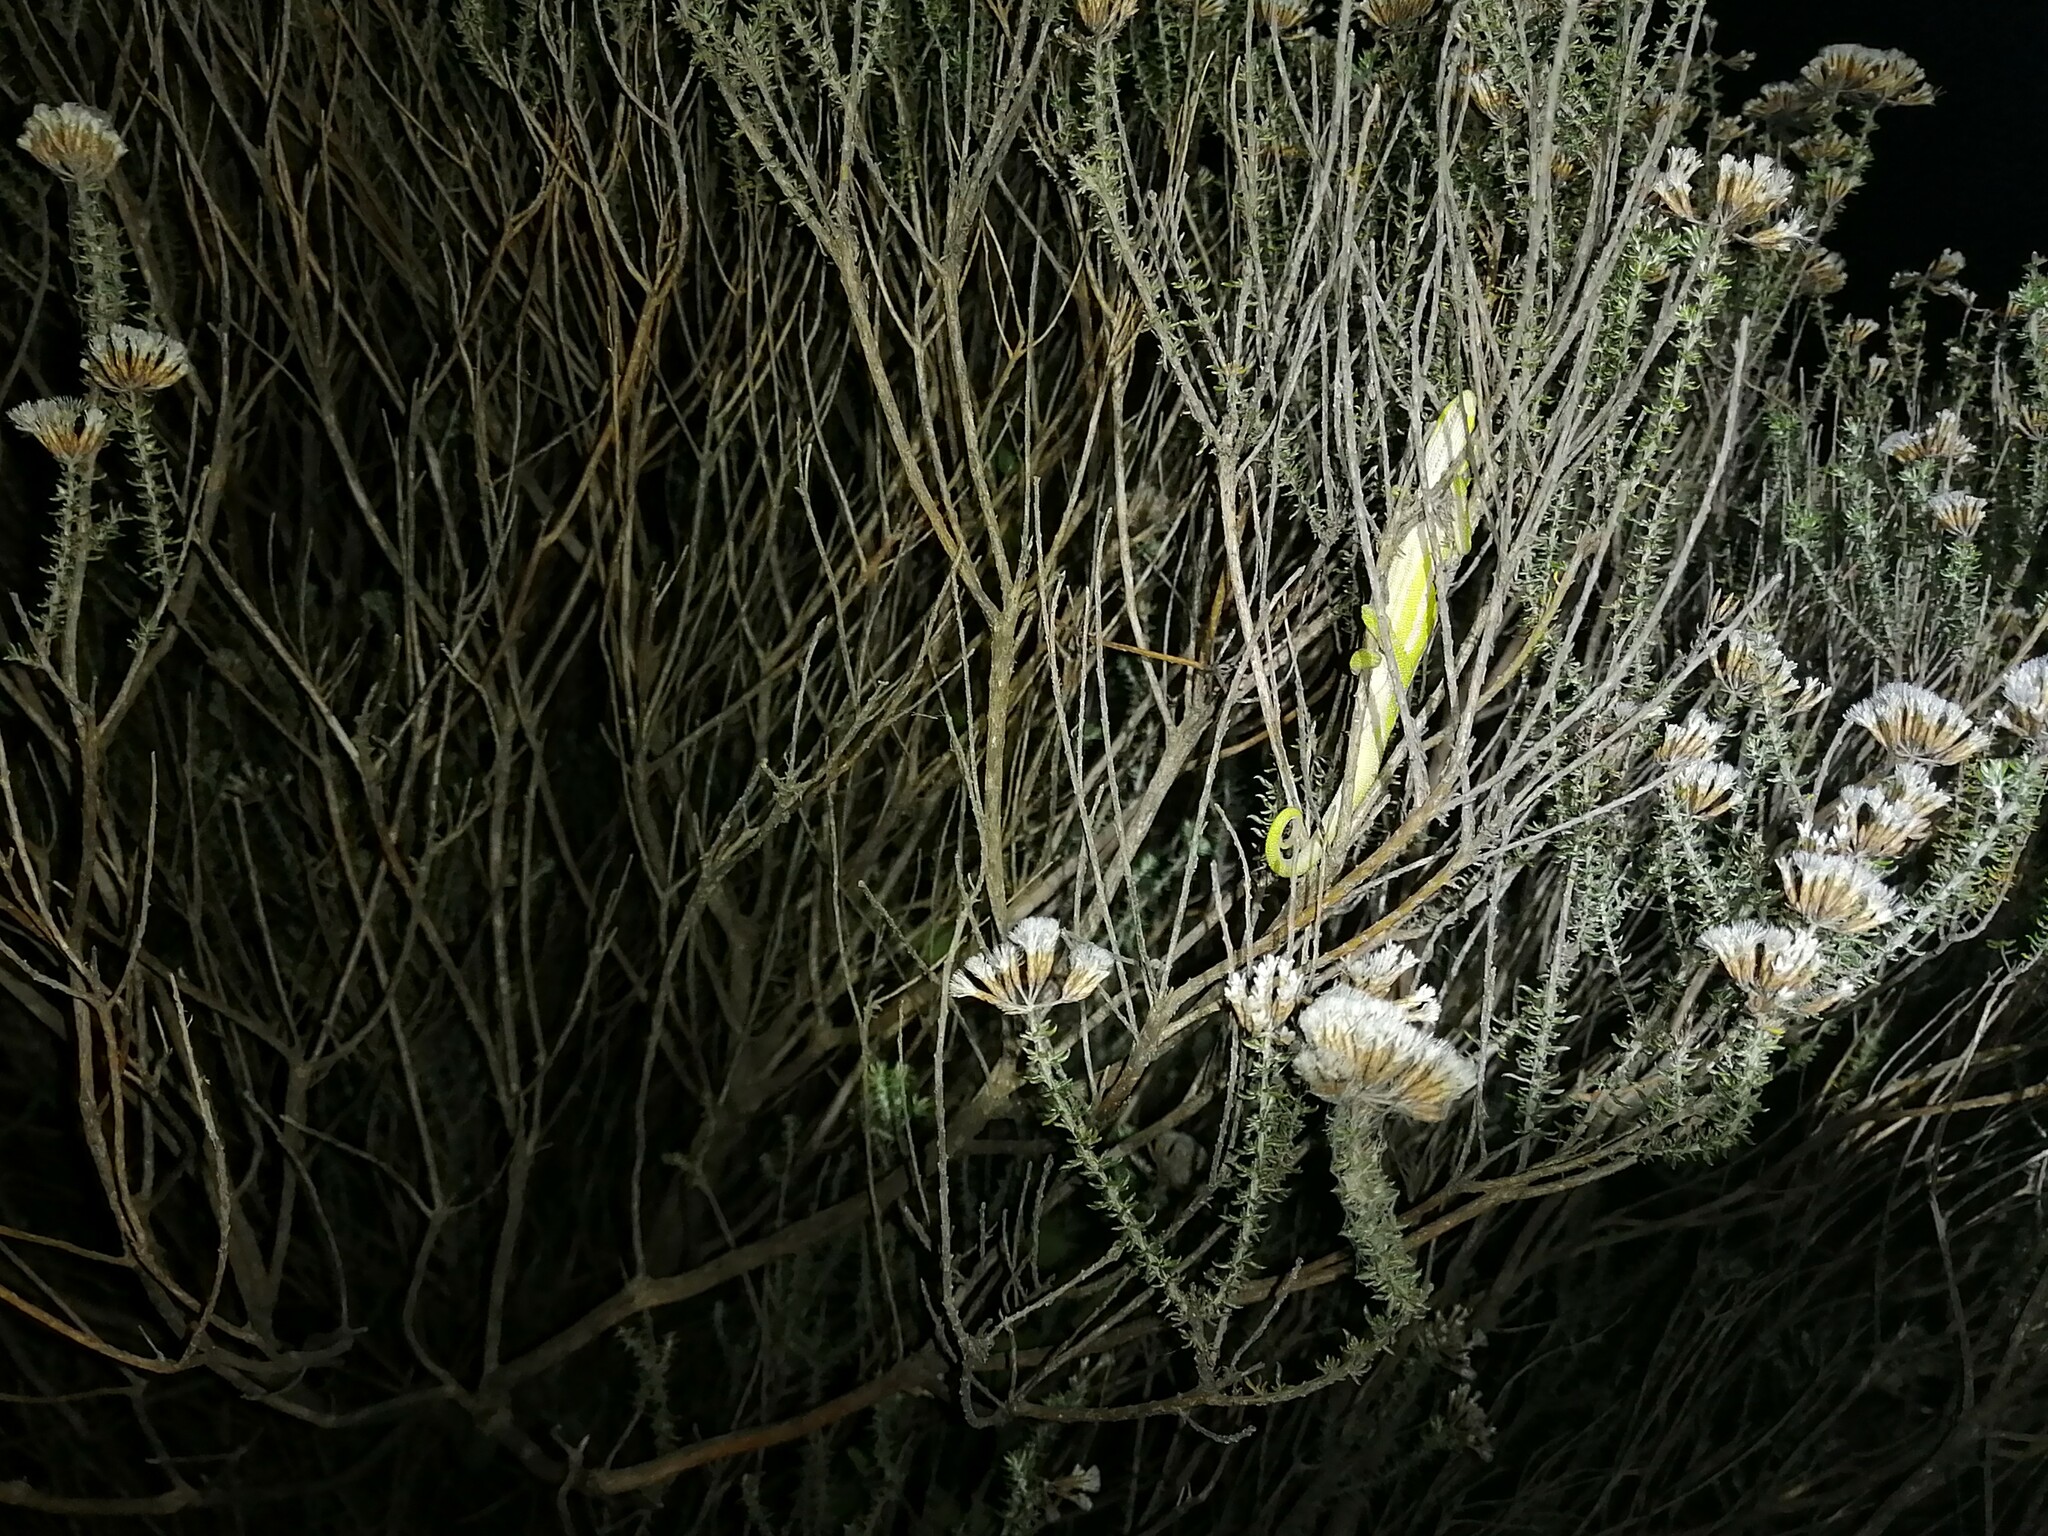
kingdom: Animalia
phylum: Chordata
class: Squamata
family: Chamaeleonidae
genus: Bradypodion
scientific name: Bradypodion pumilum
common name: Cape dwarf chameleon
